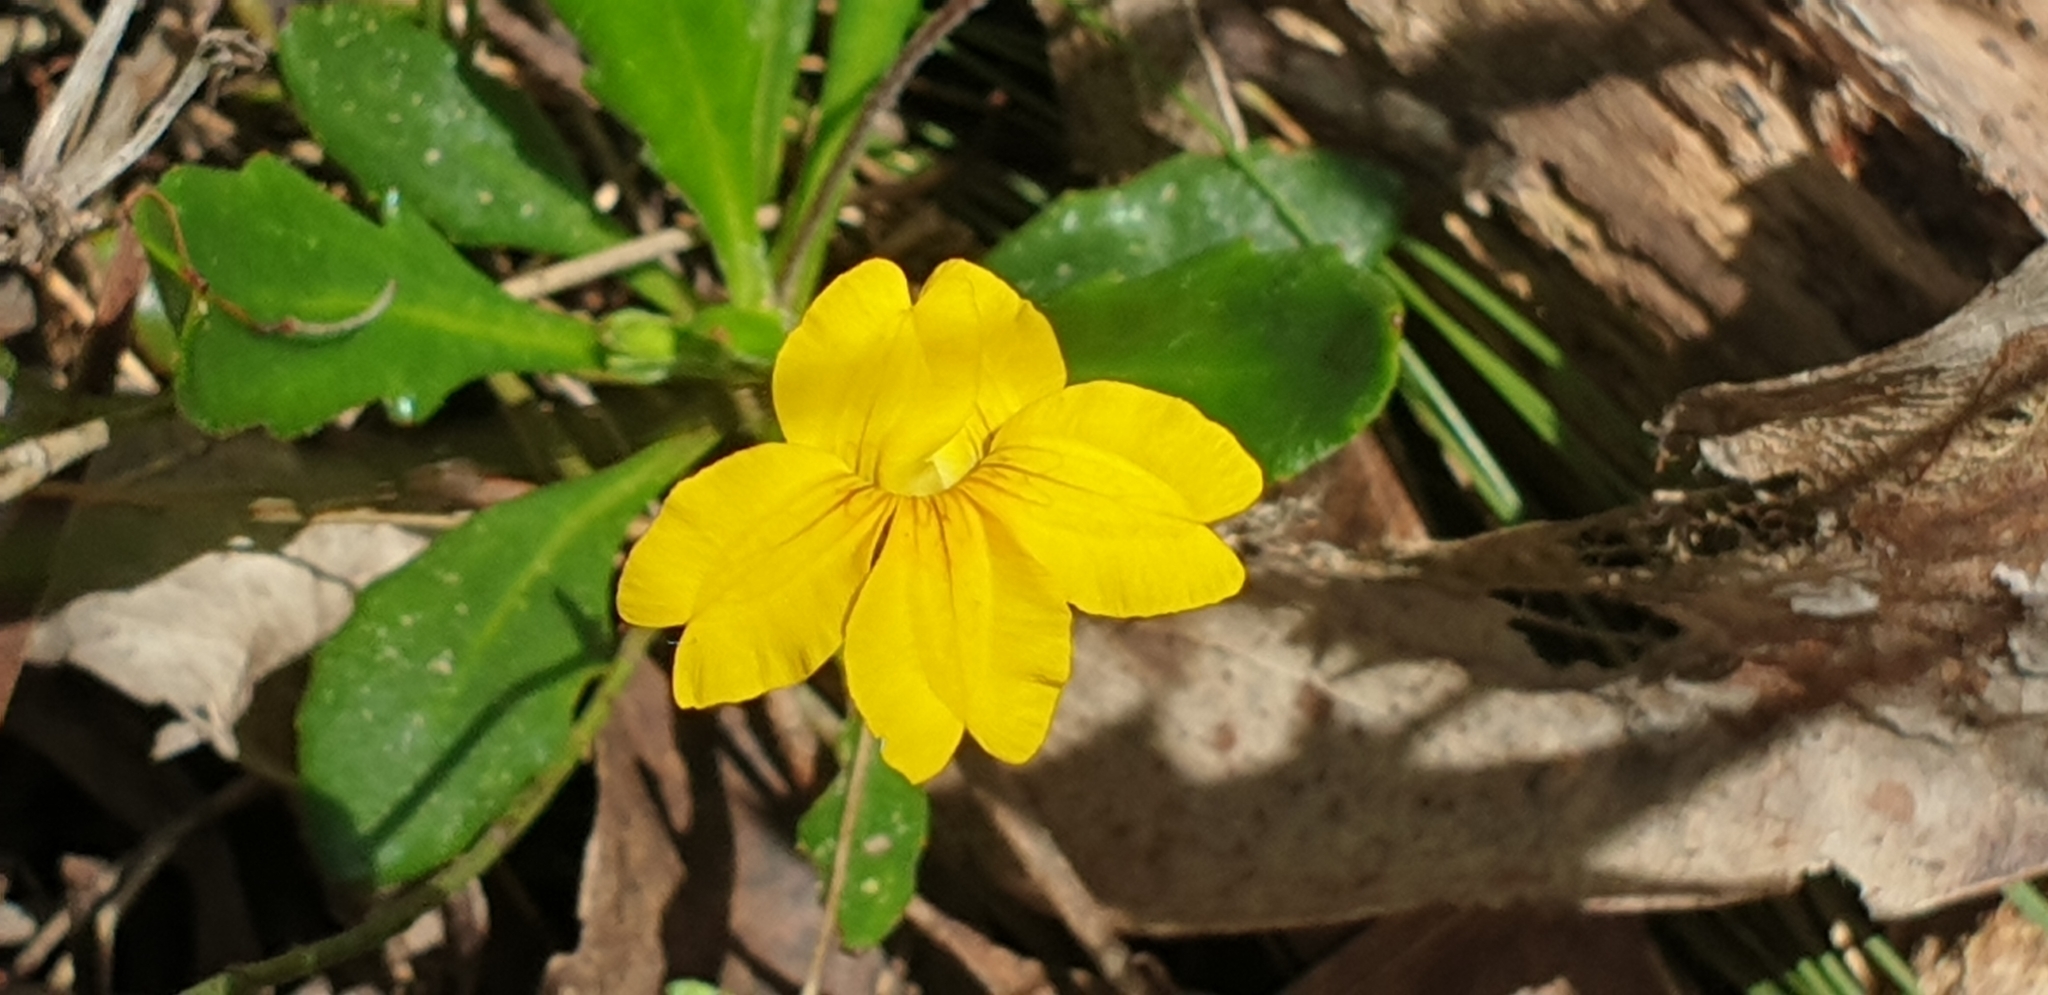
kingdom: Plantae
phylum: Tracheophyta
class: Magnoliopsida
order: Asterales
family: Goodeniaceae
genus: Goodenia
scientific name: Goodenia blackiana
